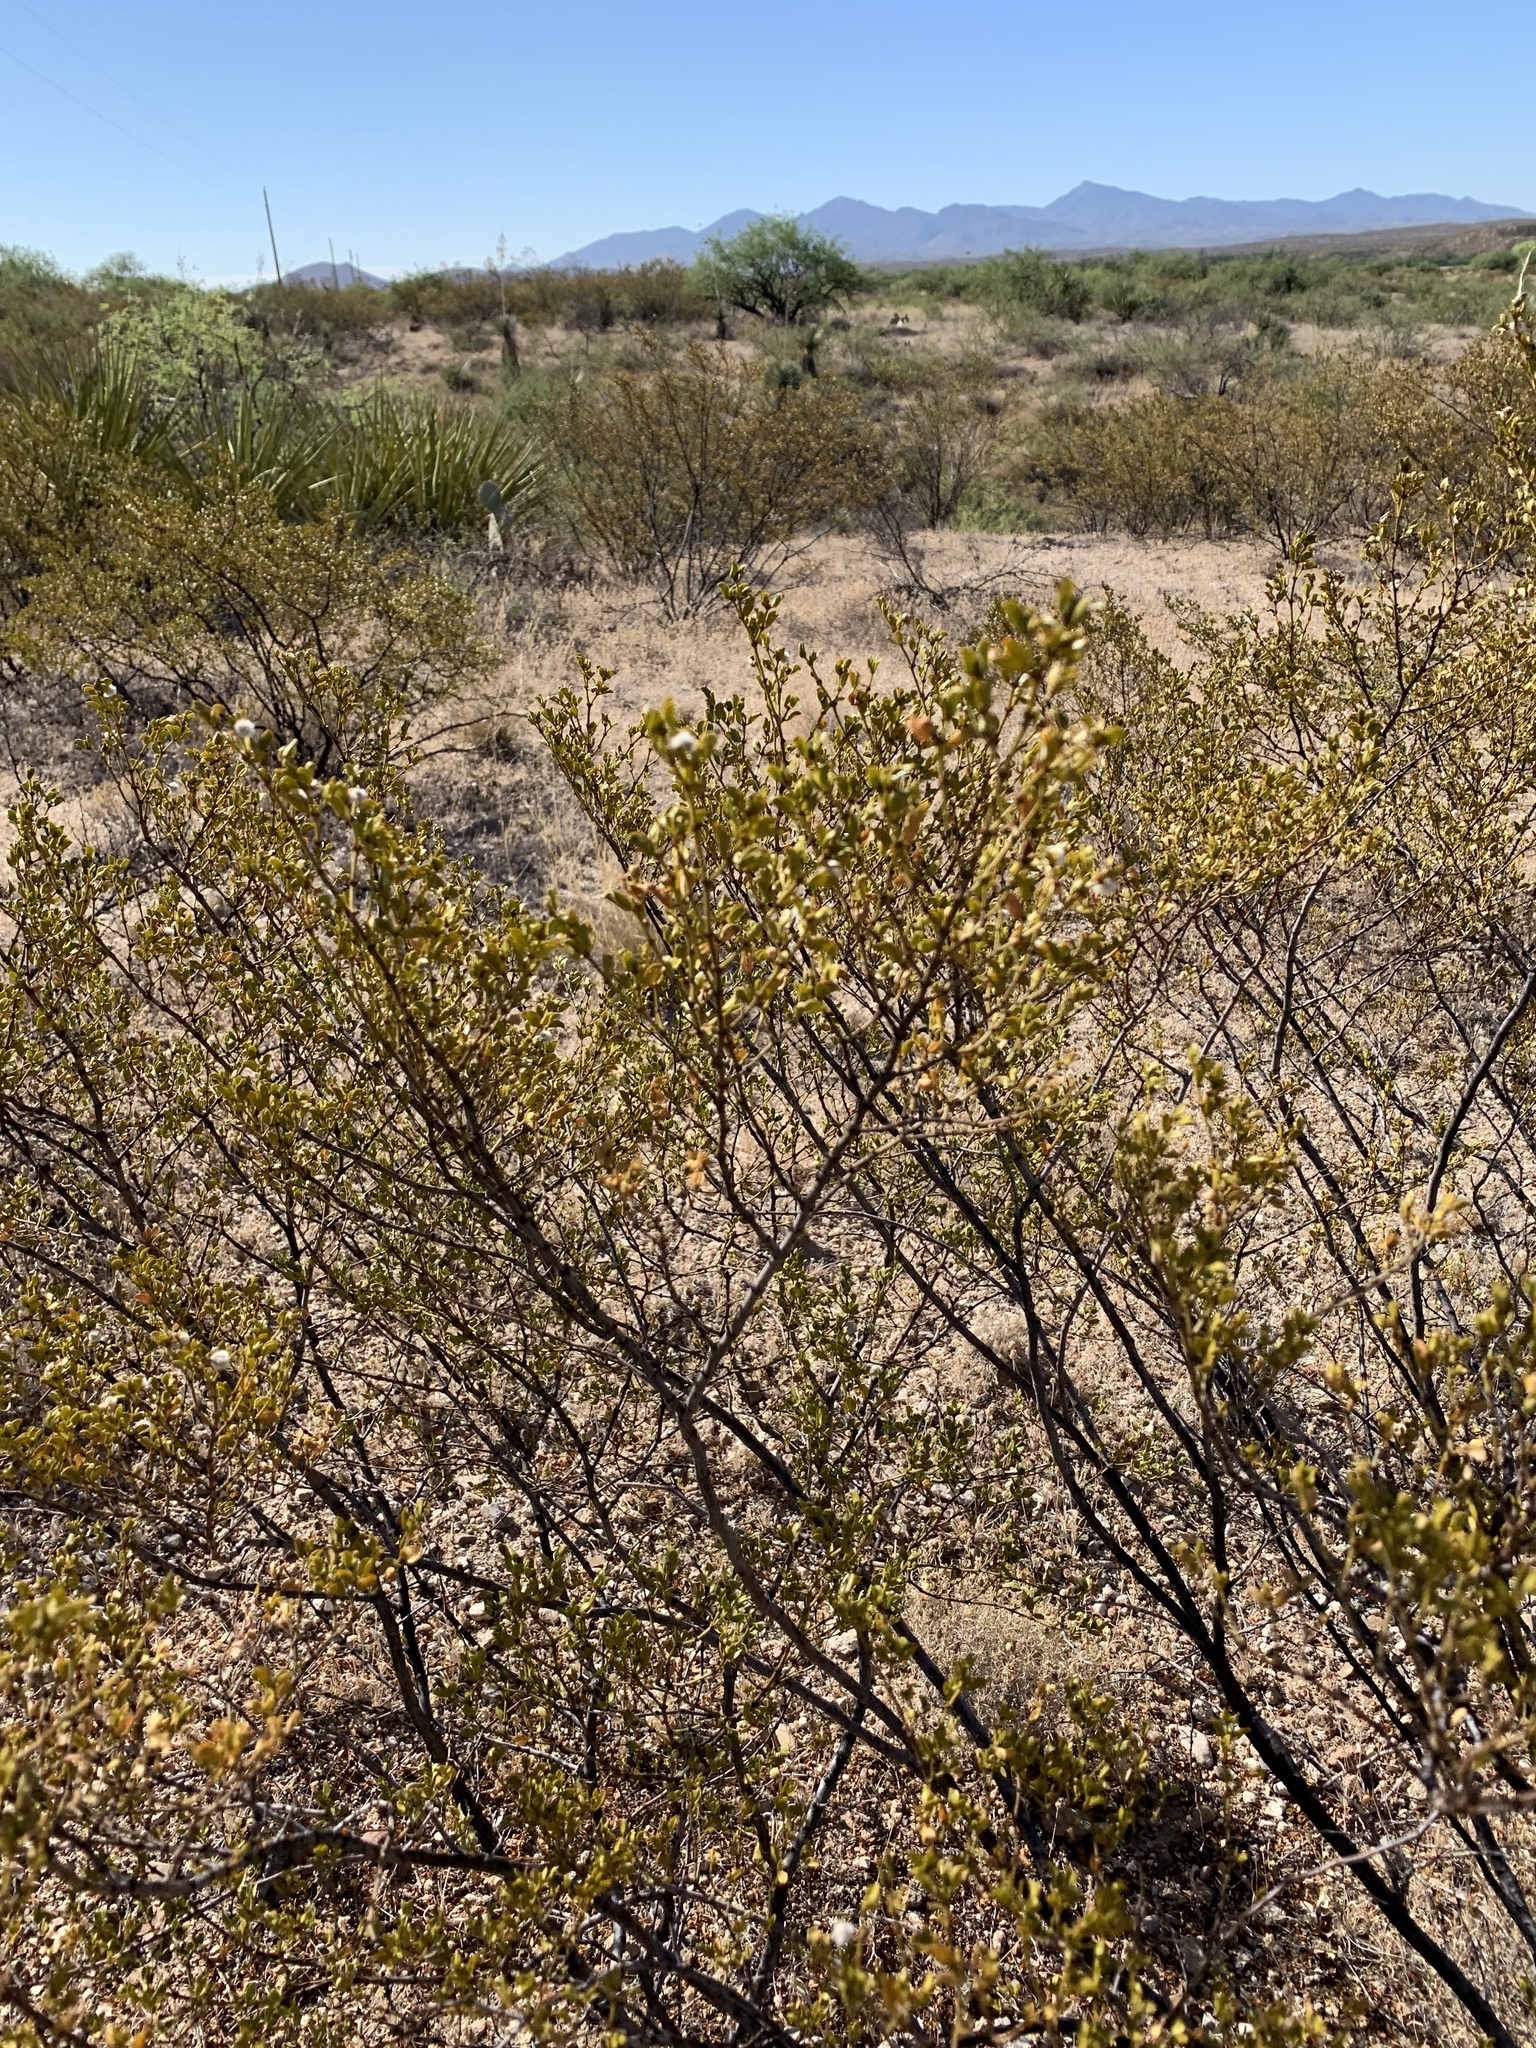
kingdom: Plantae
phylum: Tracheophyta
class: Magnoliopsida
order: Zygophyllales
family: Zygophyllaceae
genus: Larrea
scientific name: Larrea tridentata
